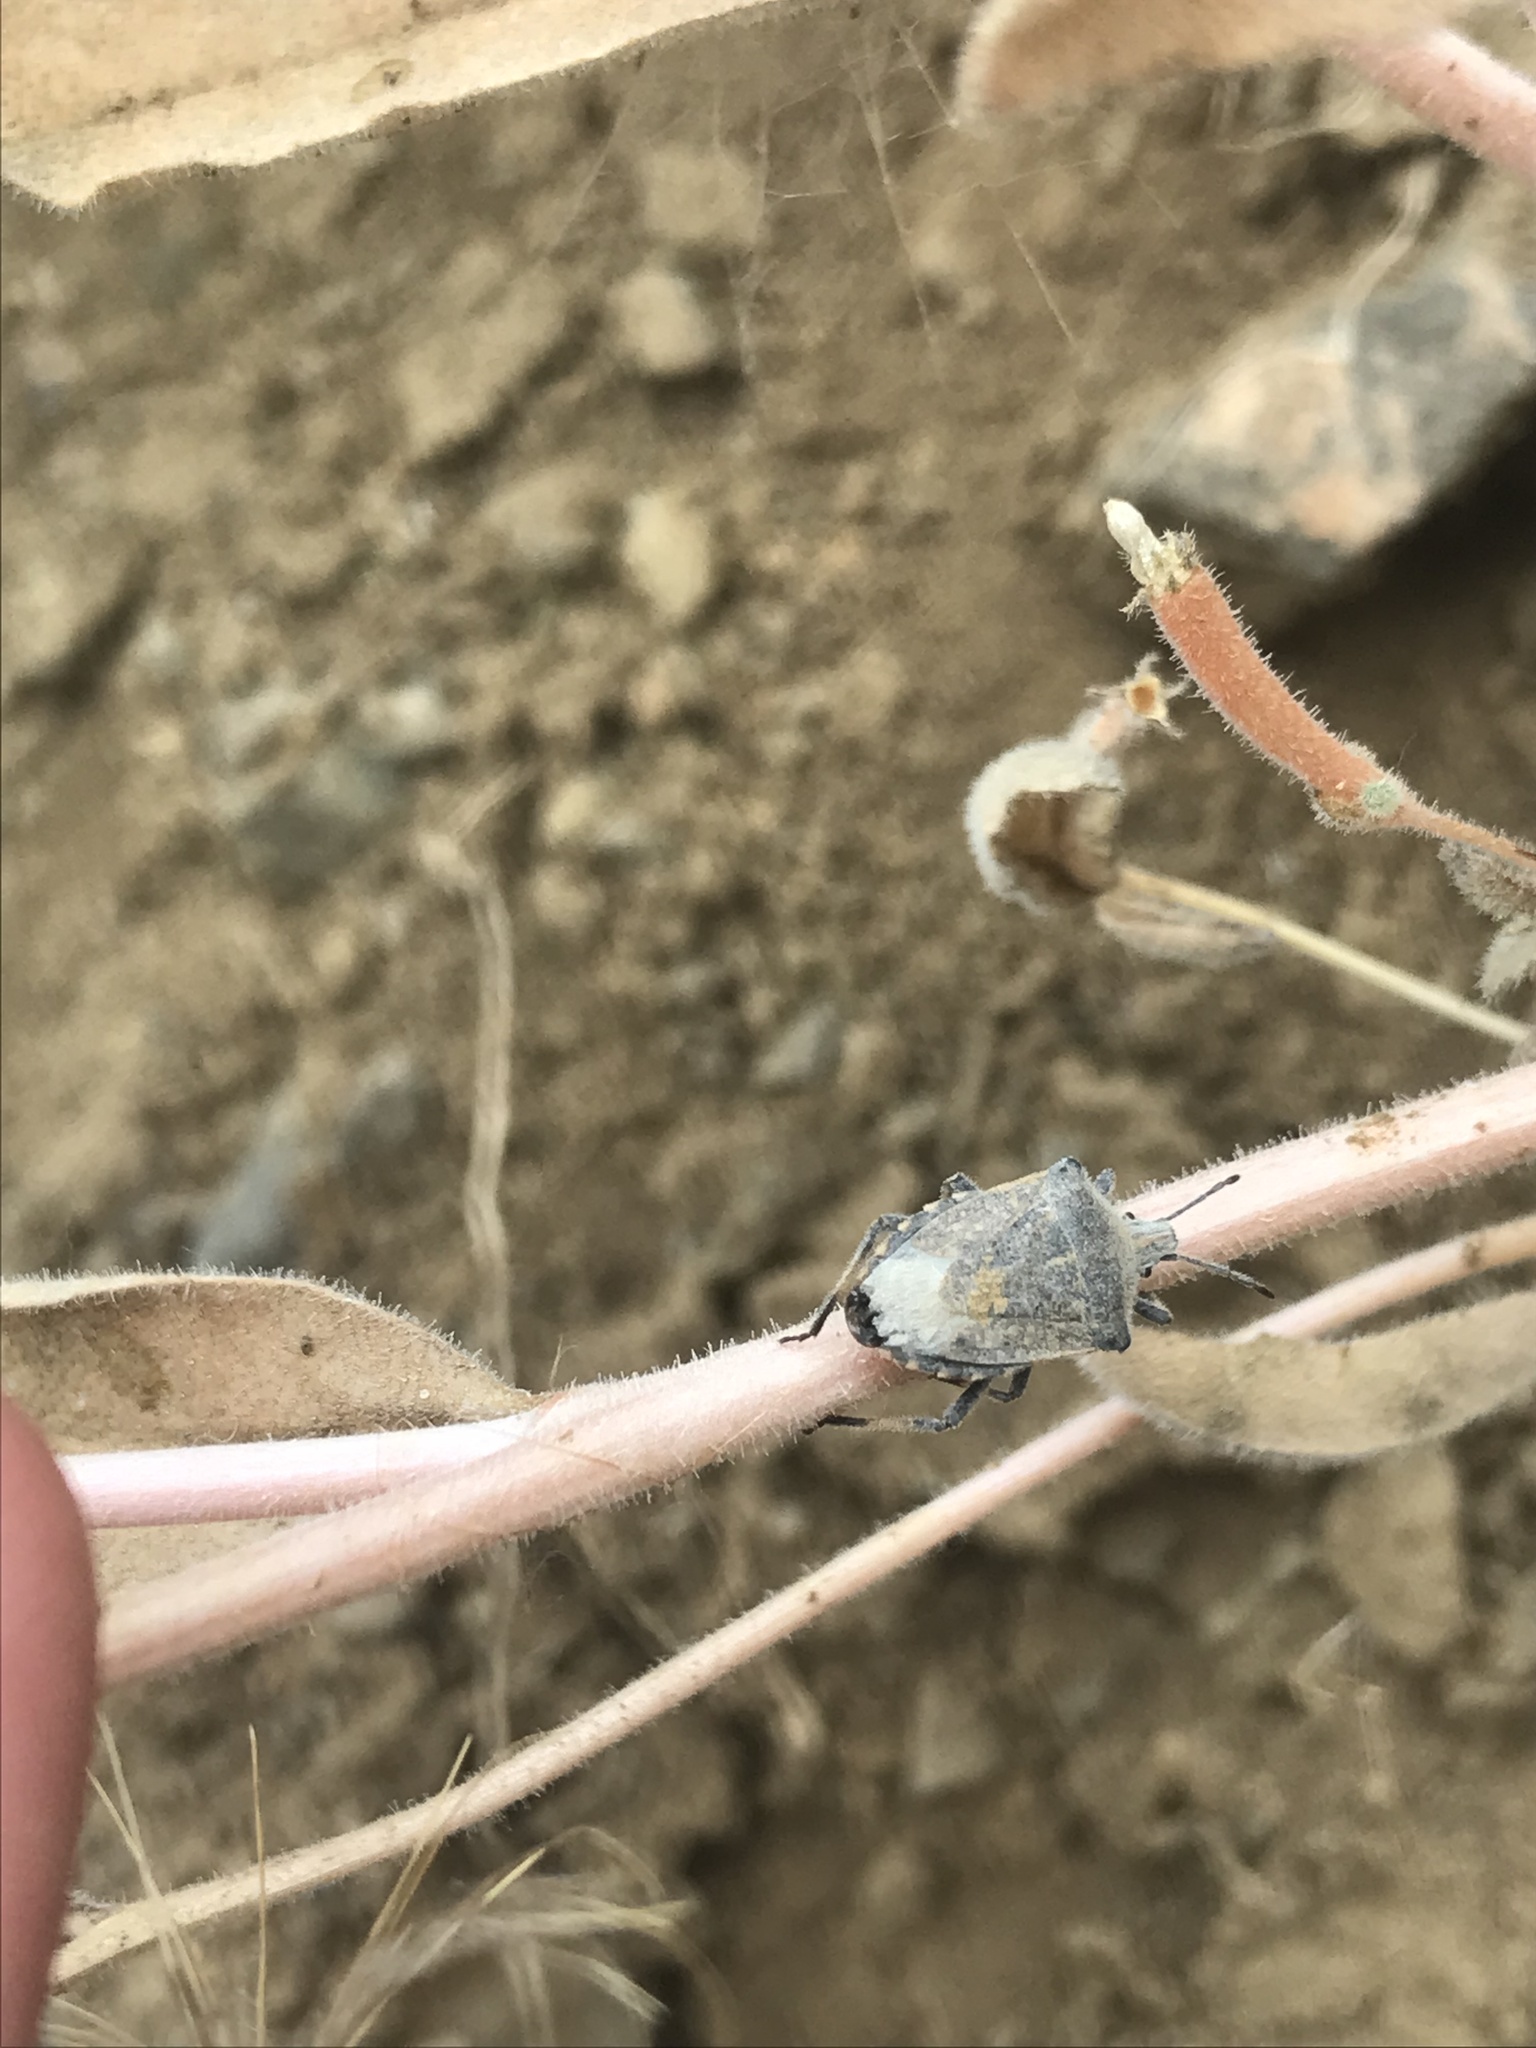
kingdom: Animalia
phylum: Arthropoda
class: Insecta
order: Hemiptera
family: Pentatomidae
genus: Prionosoma
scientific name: Prionosoma podopioides
